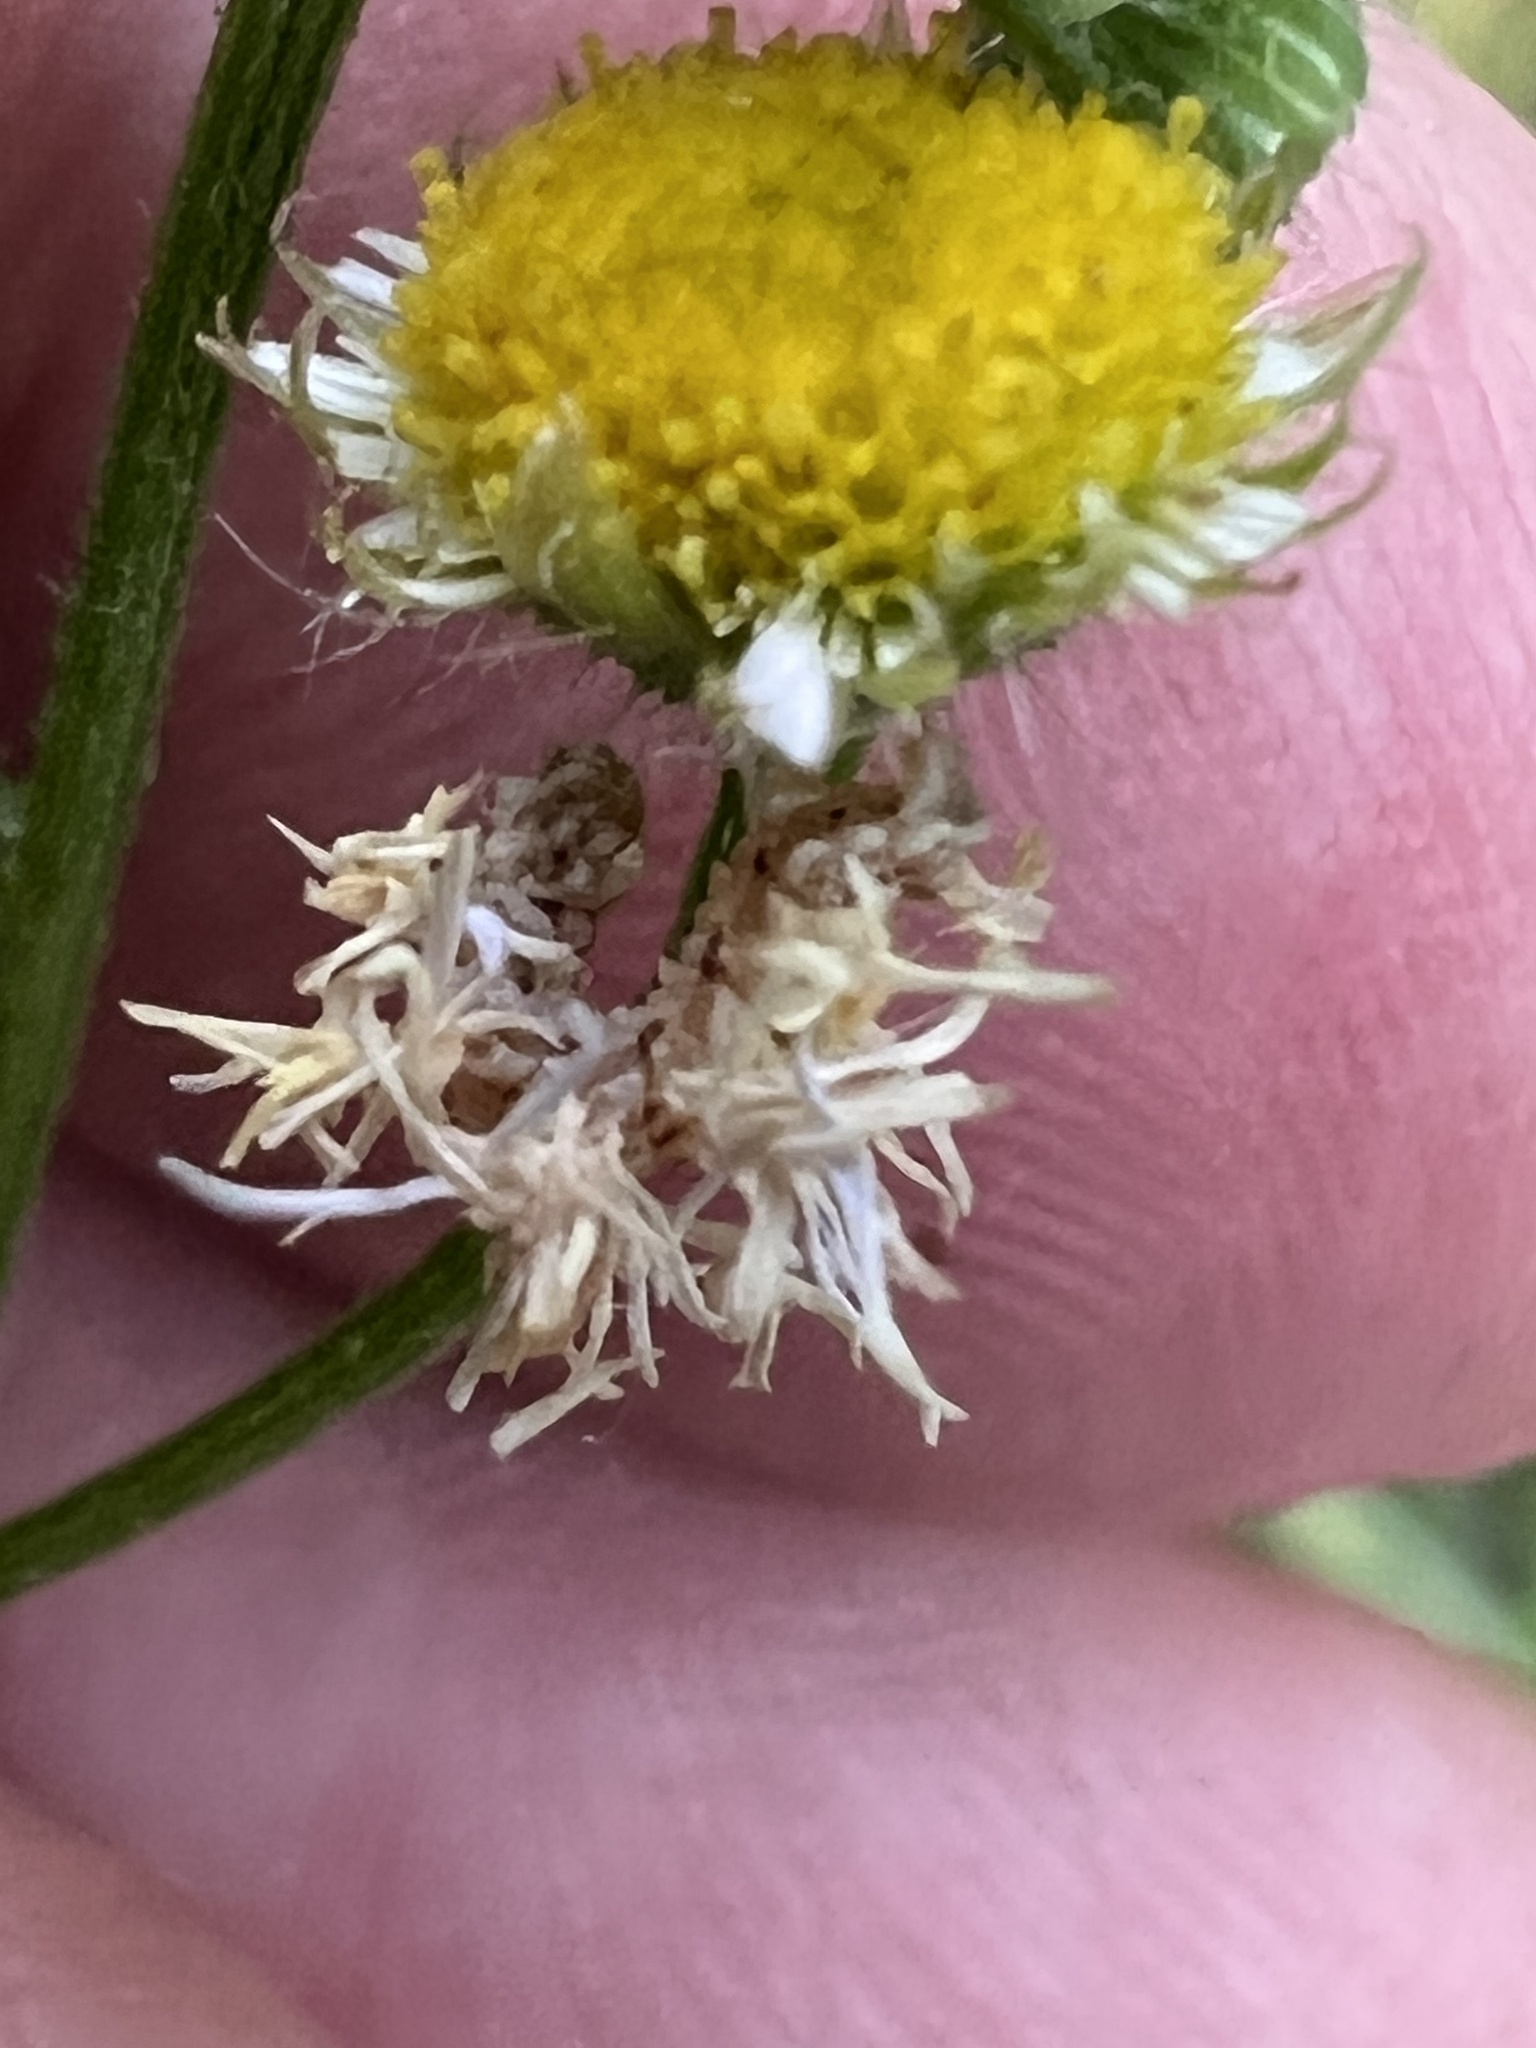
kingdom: Animalia
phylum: Arthropoda
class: Insecta
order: Lepidoptera
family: Geometridae
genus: Synchlora
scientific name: Synchlora
